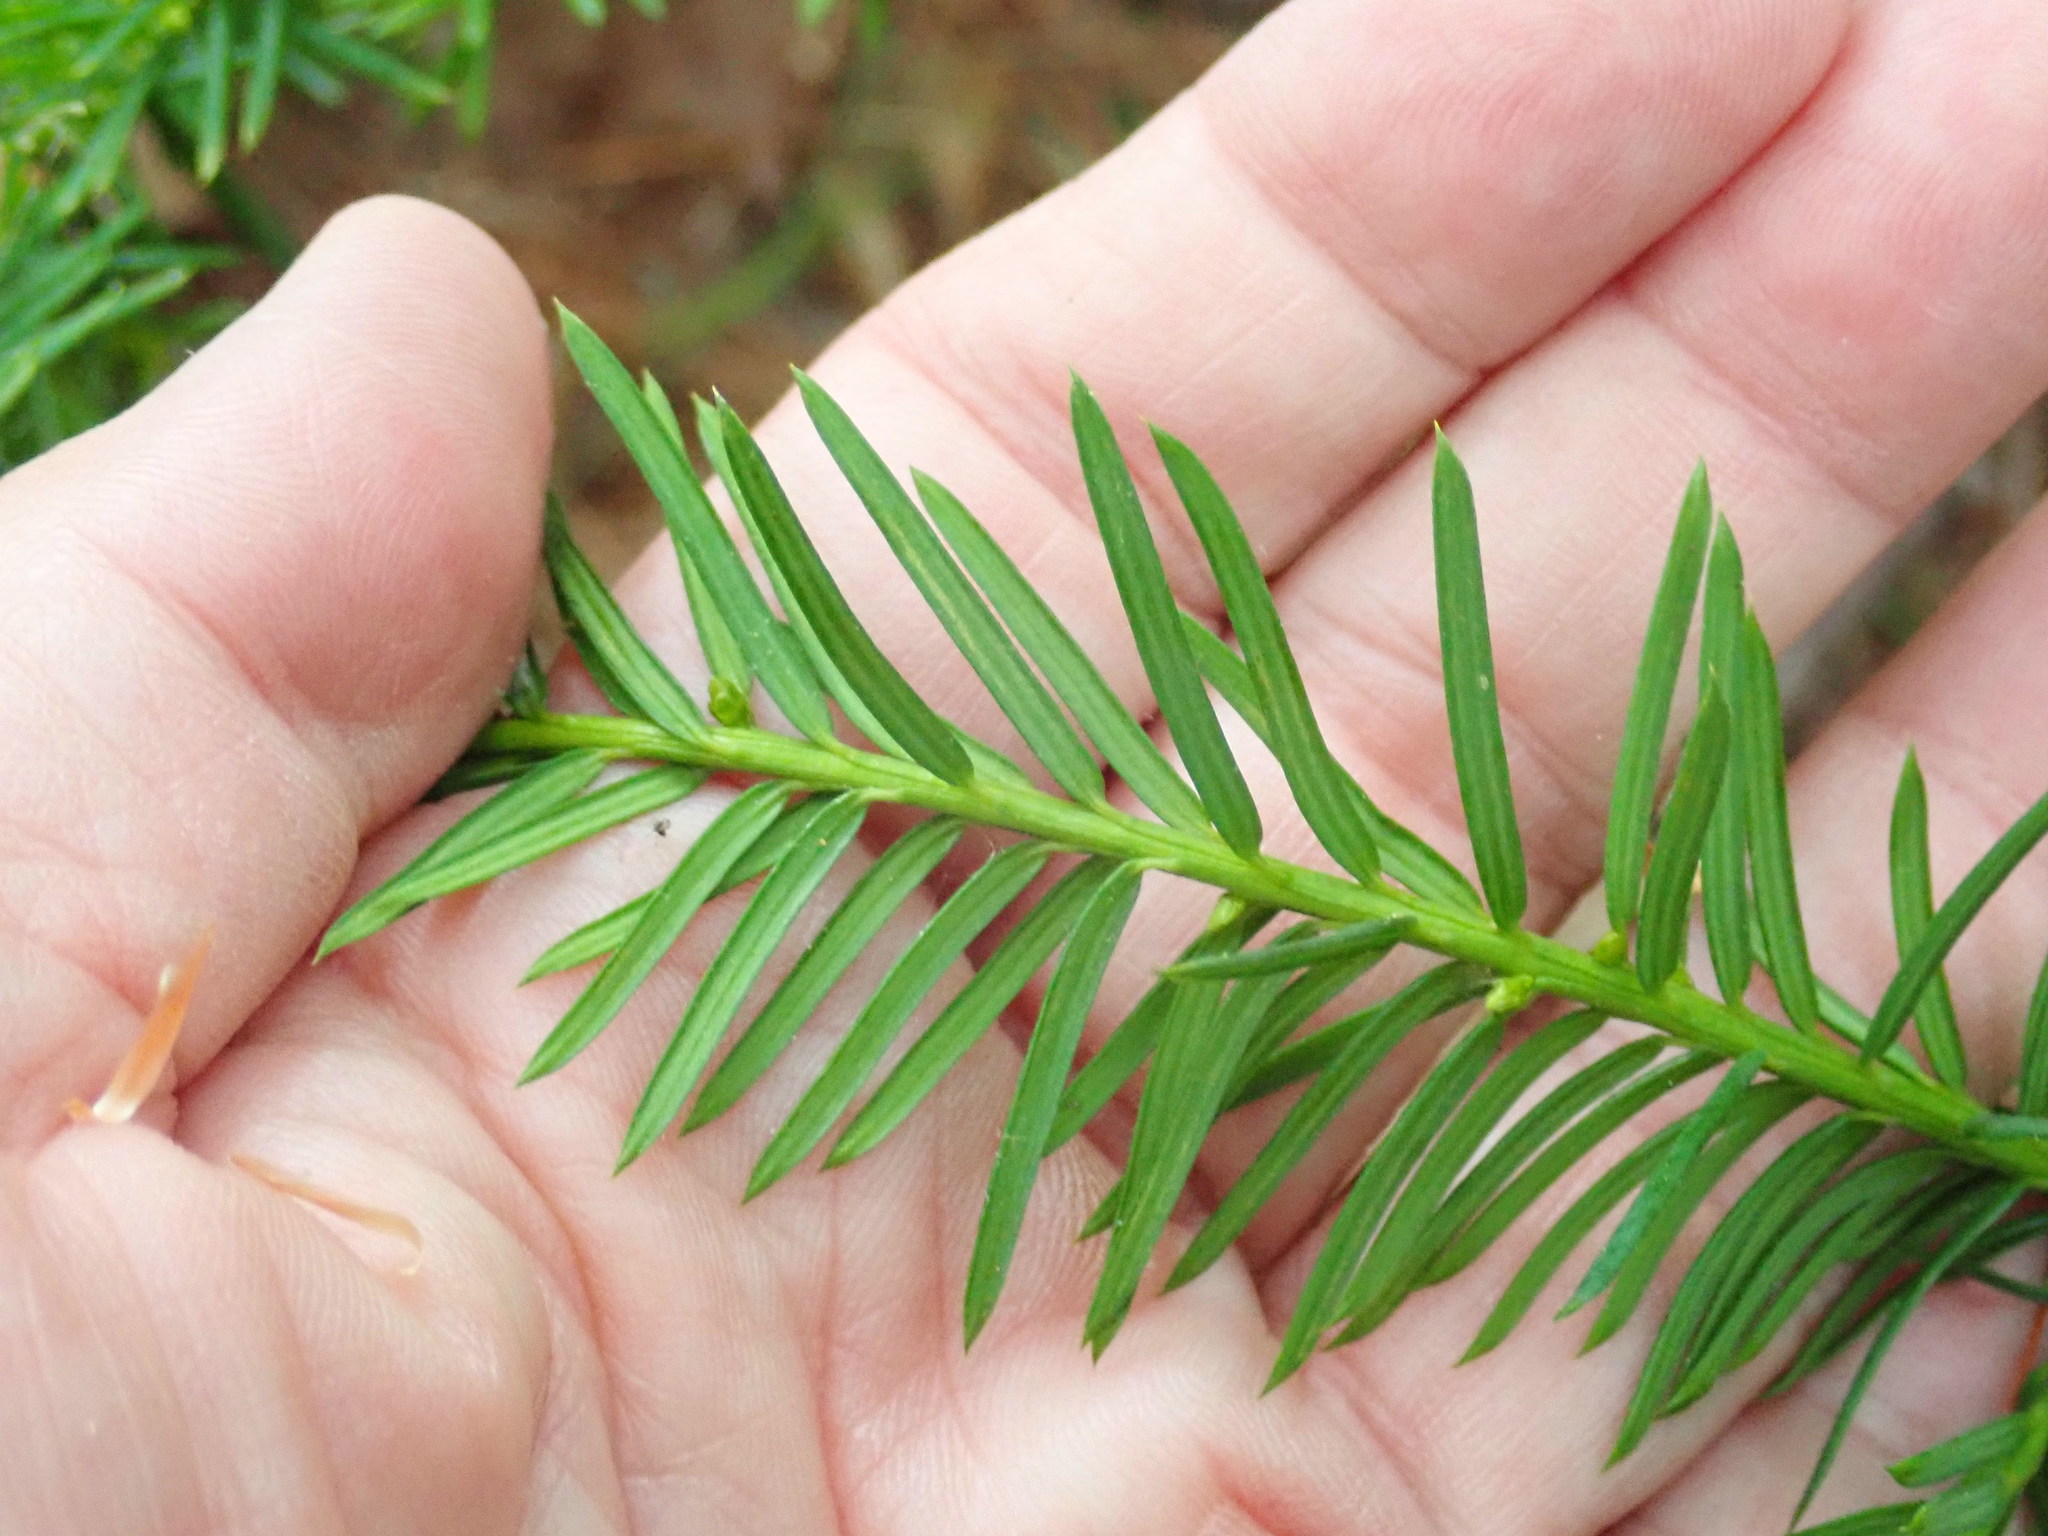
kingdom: Plantae
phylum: Tracheophyta
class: Pinopsida
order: Pinales
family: Taxaceae
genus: Taxus
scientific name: Taxus canadensis
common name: American yew
